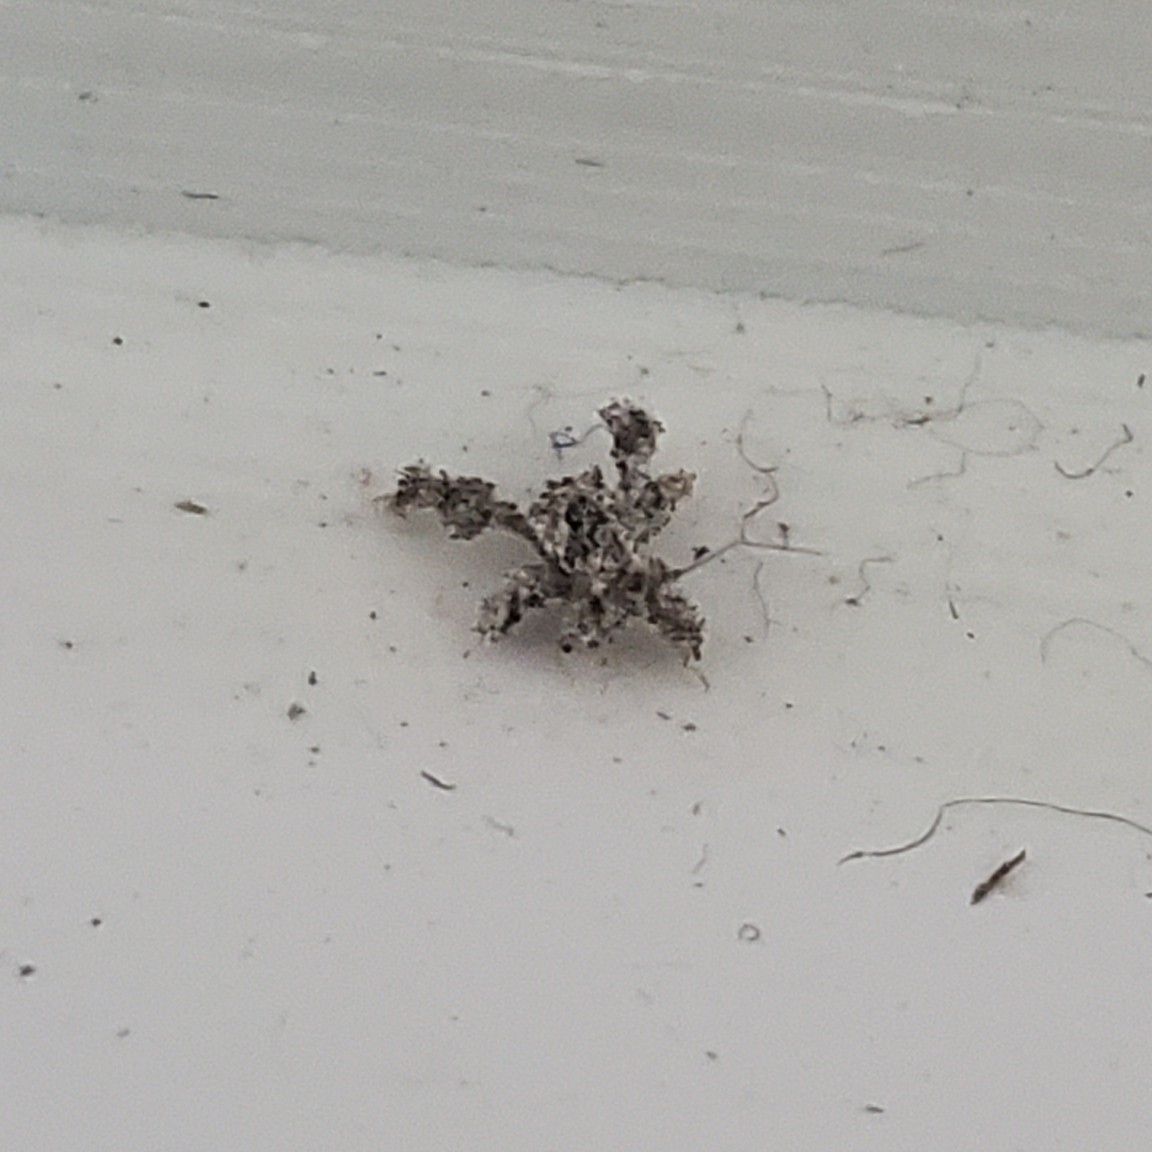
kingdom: Animalia
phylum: Arthropoda
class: Insecta
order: Hemiptera
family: Reduviidae
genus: Reduvius
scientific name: Reduvius personatus
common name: Masked hunter
